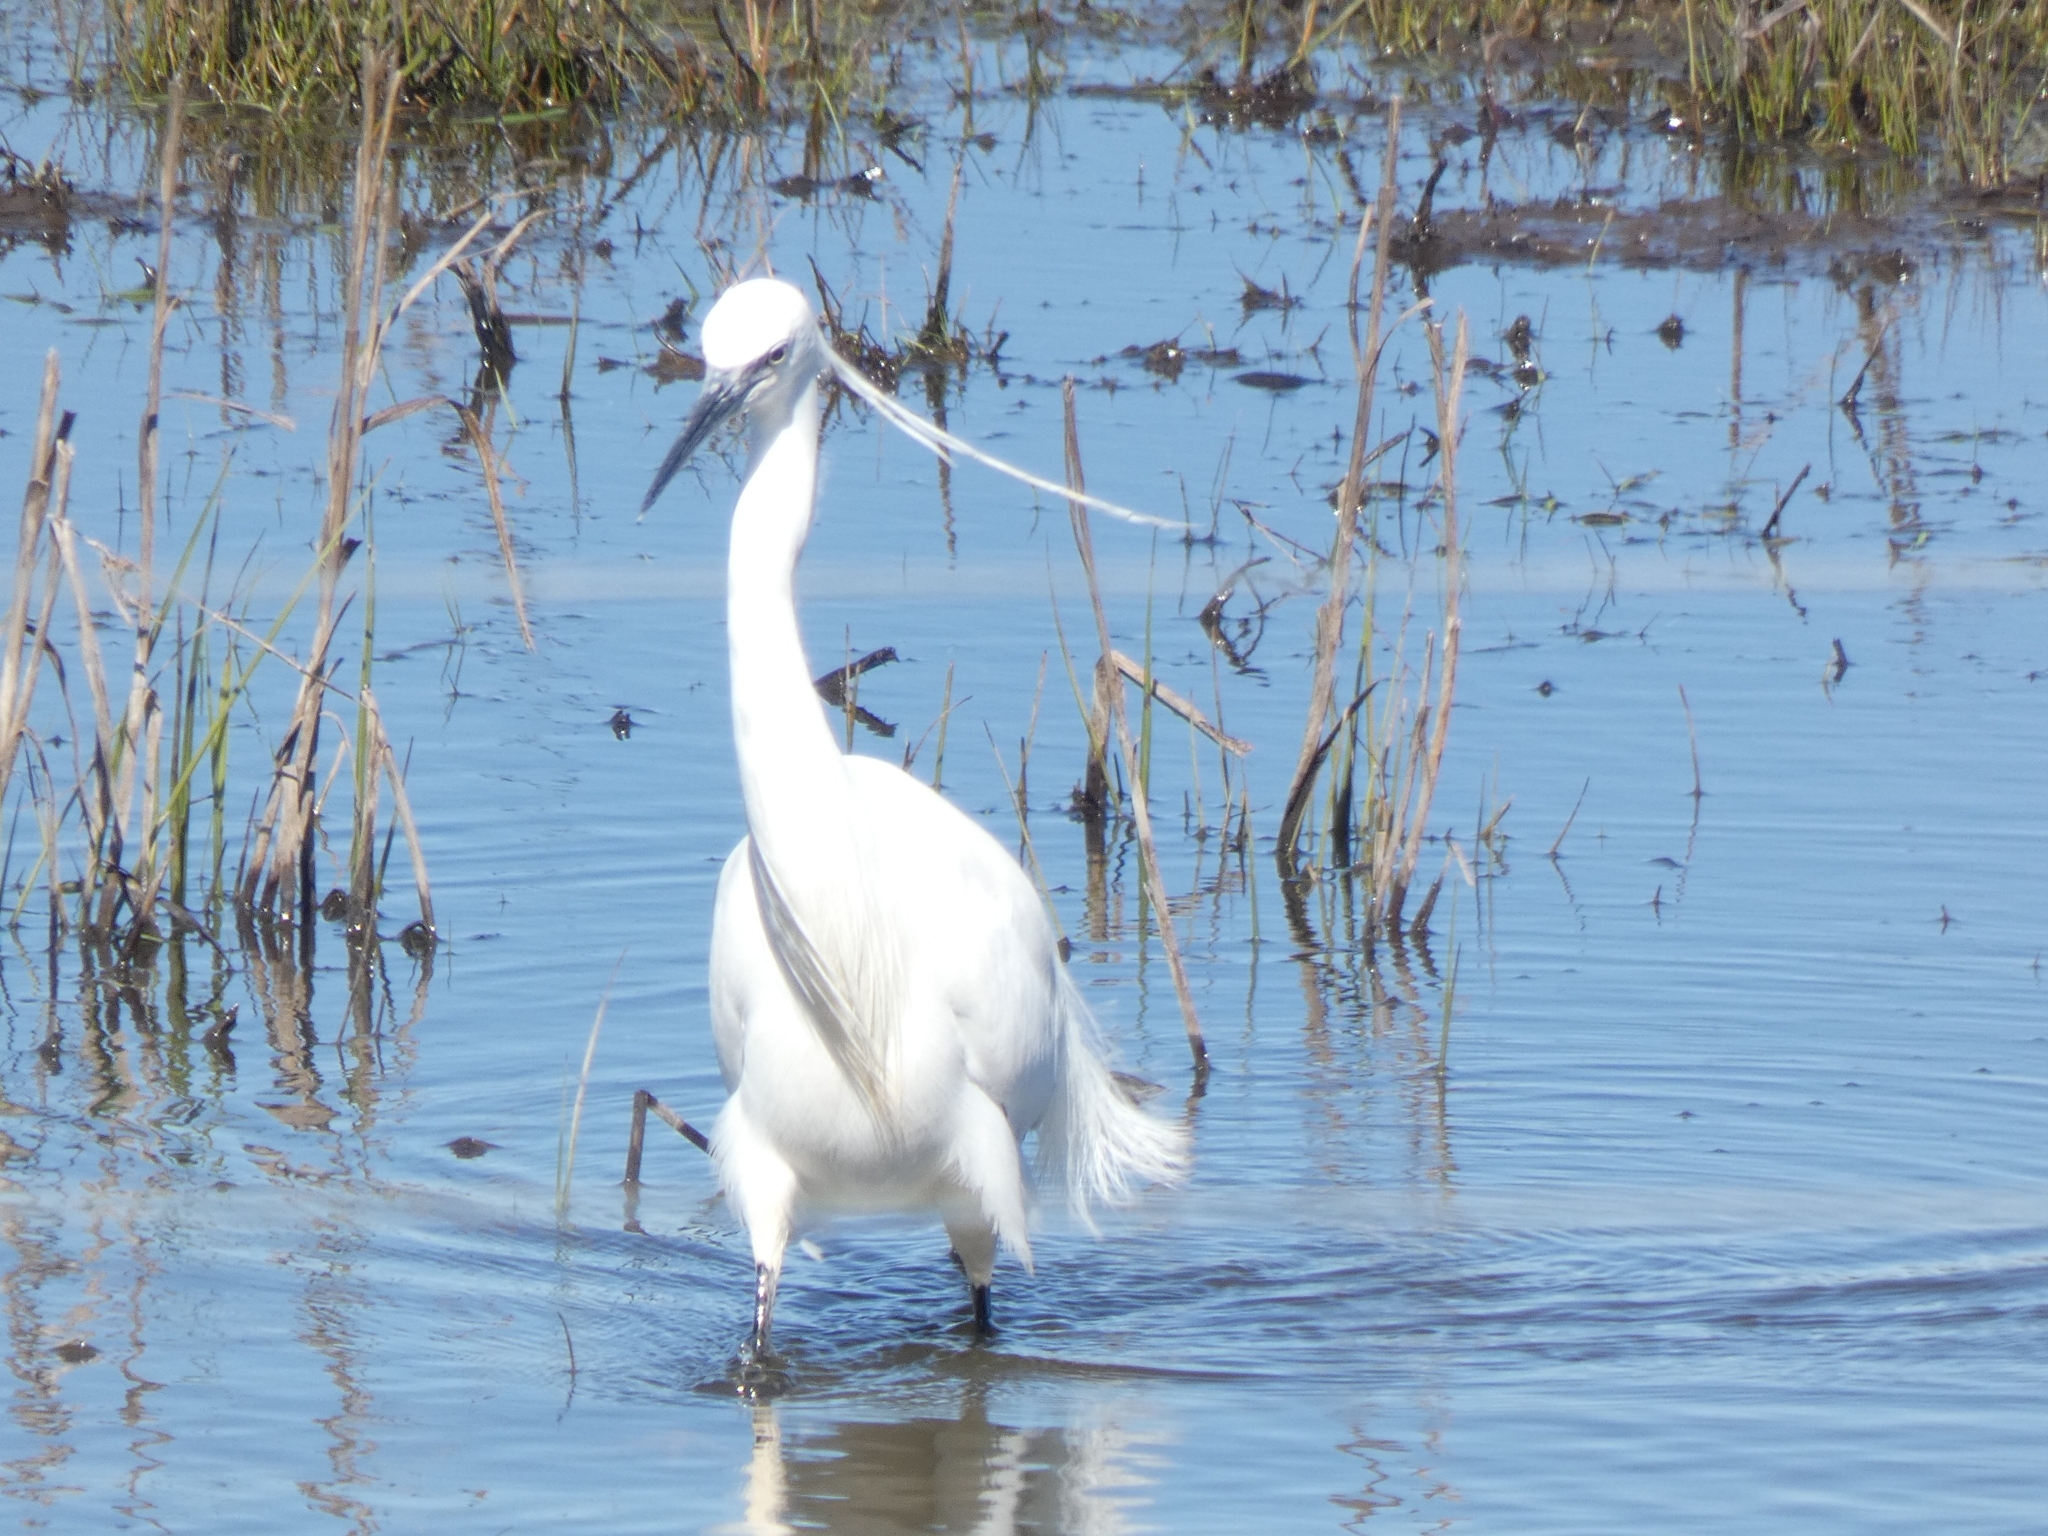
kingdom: Animalia
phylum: Chordata
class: Aves
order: Pelecaniformes
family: Ardeidae
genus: Egretta
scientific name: Egretta garzetta
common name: Little egret
